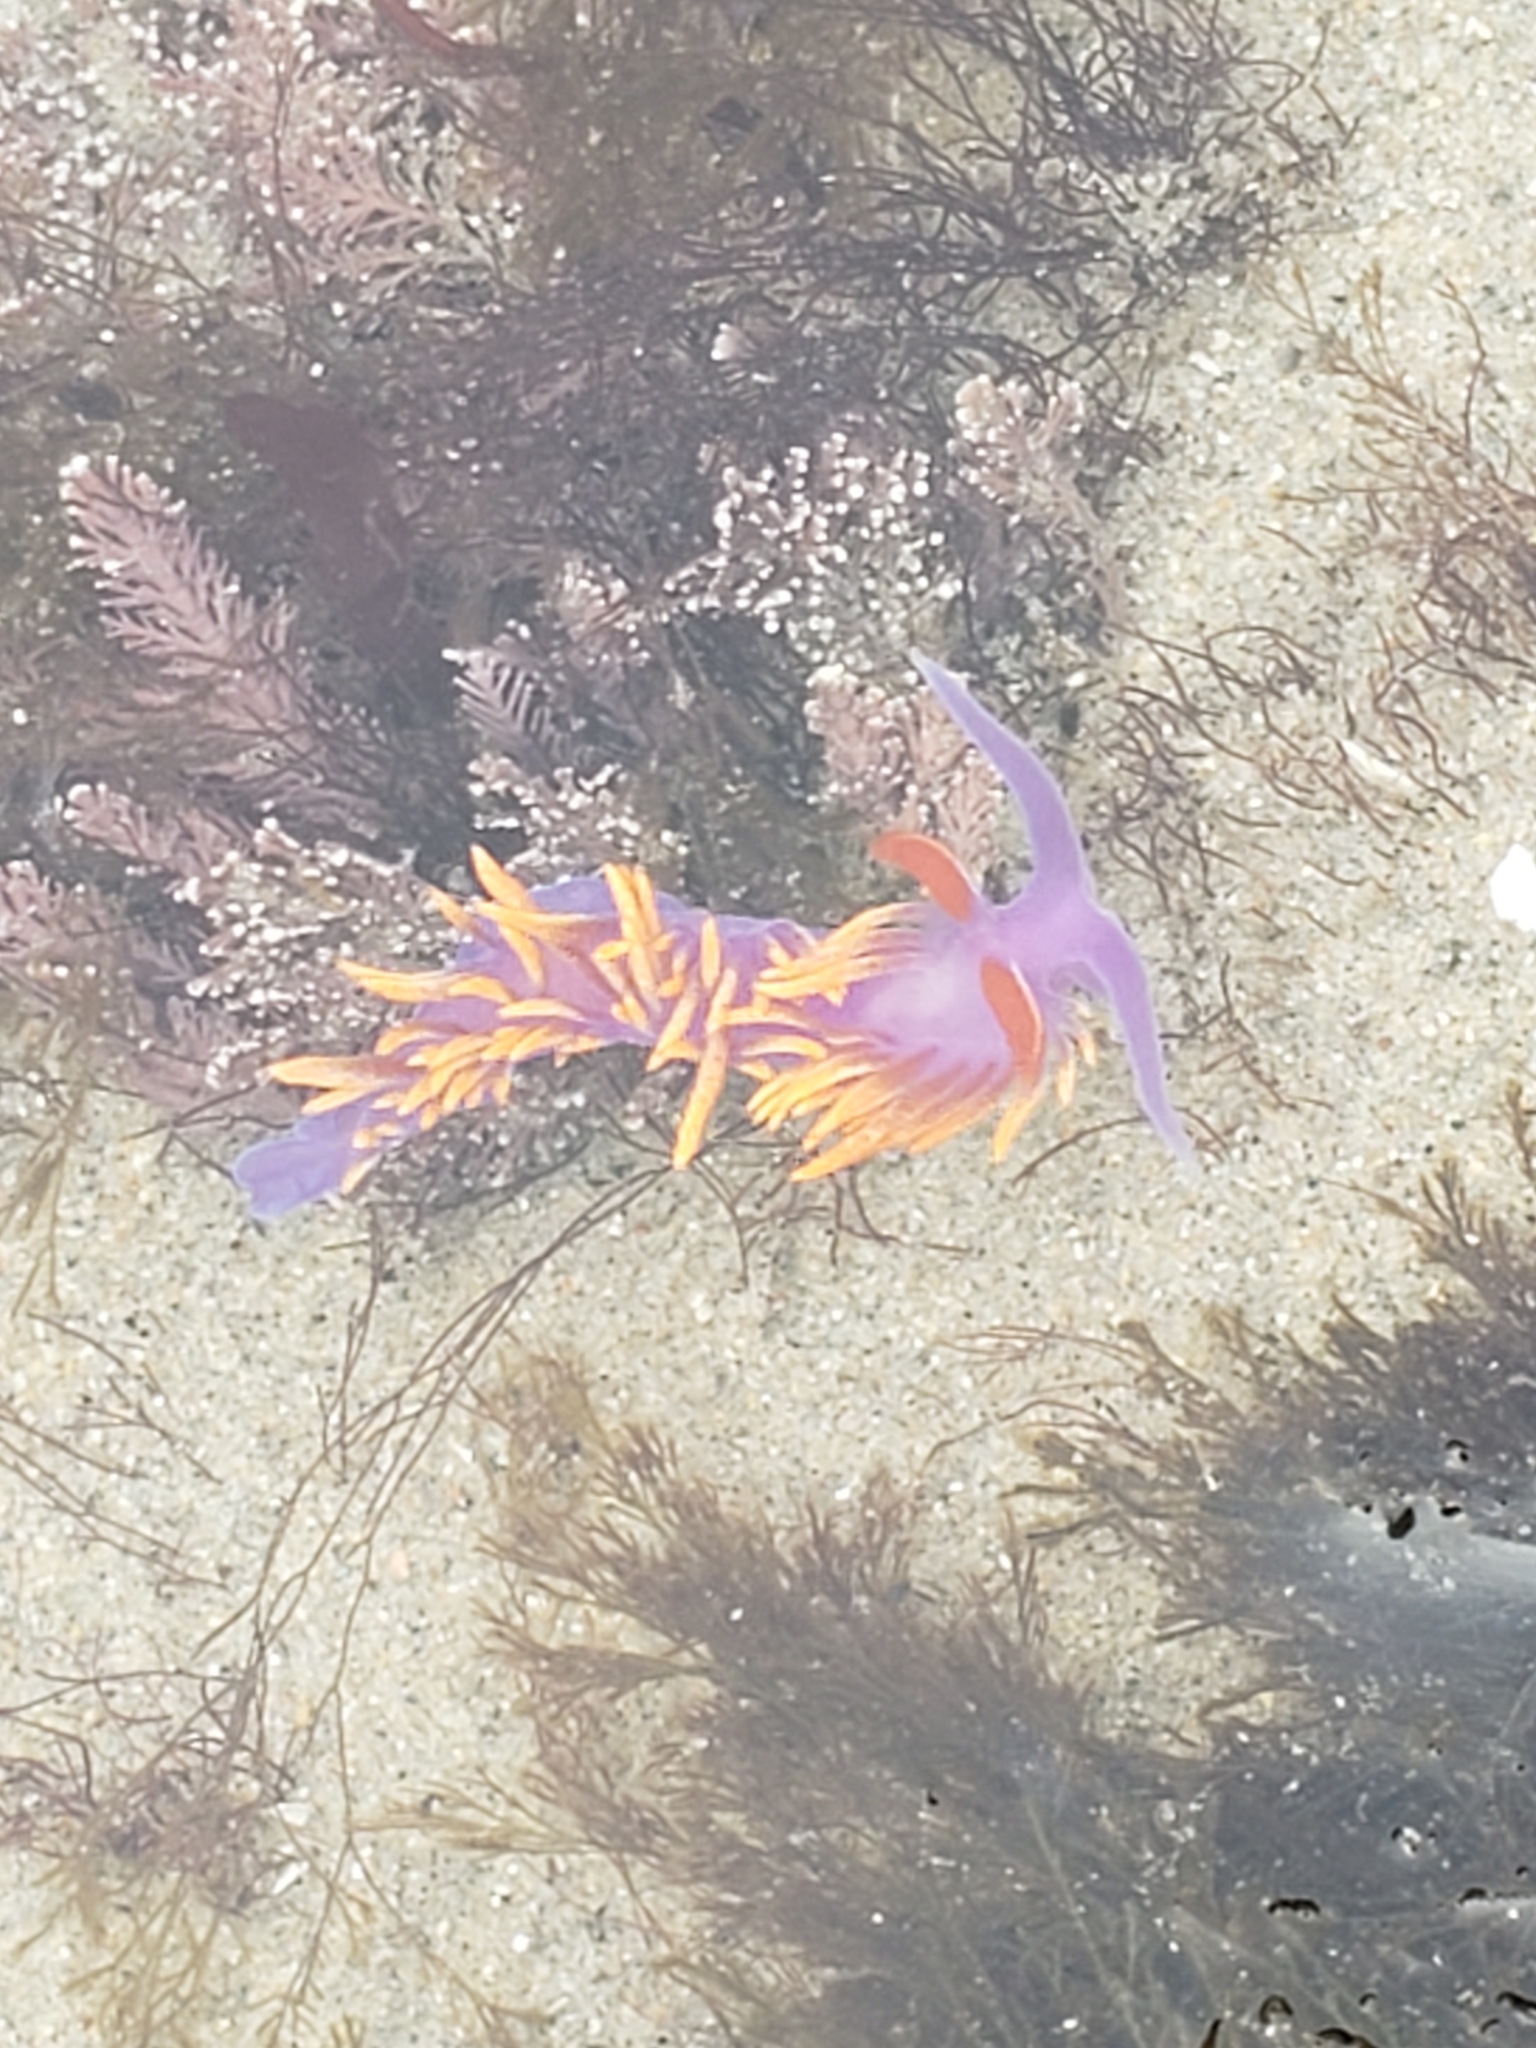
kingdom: Animalia
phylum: Mollusca
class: Gastropoda
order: Nudibranchia
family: Flabellinopsidae
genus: Flabellinopsis
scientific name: Flabellinopsis iodinea
